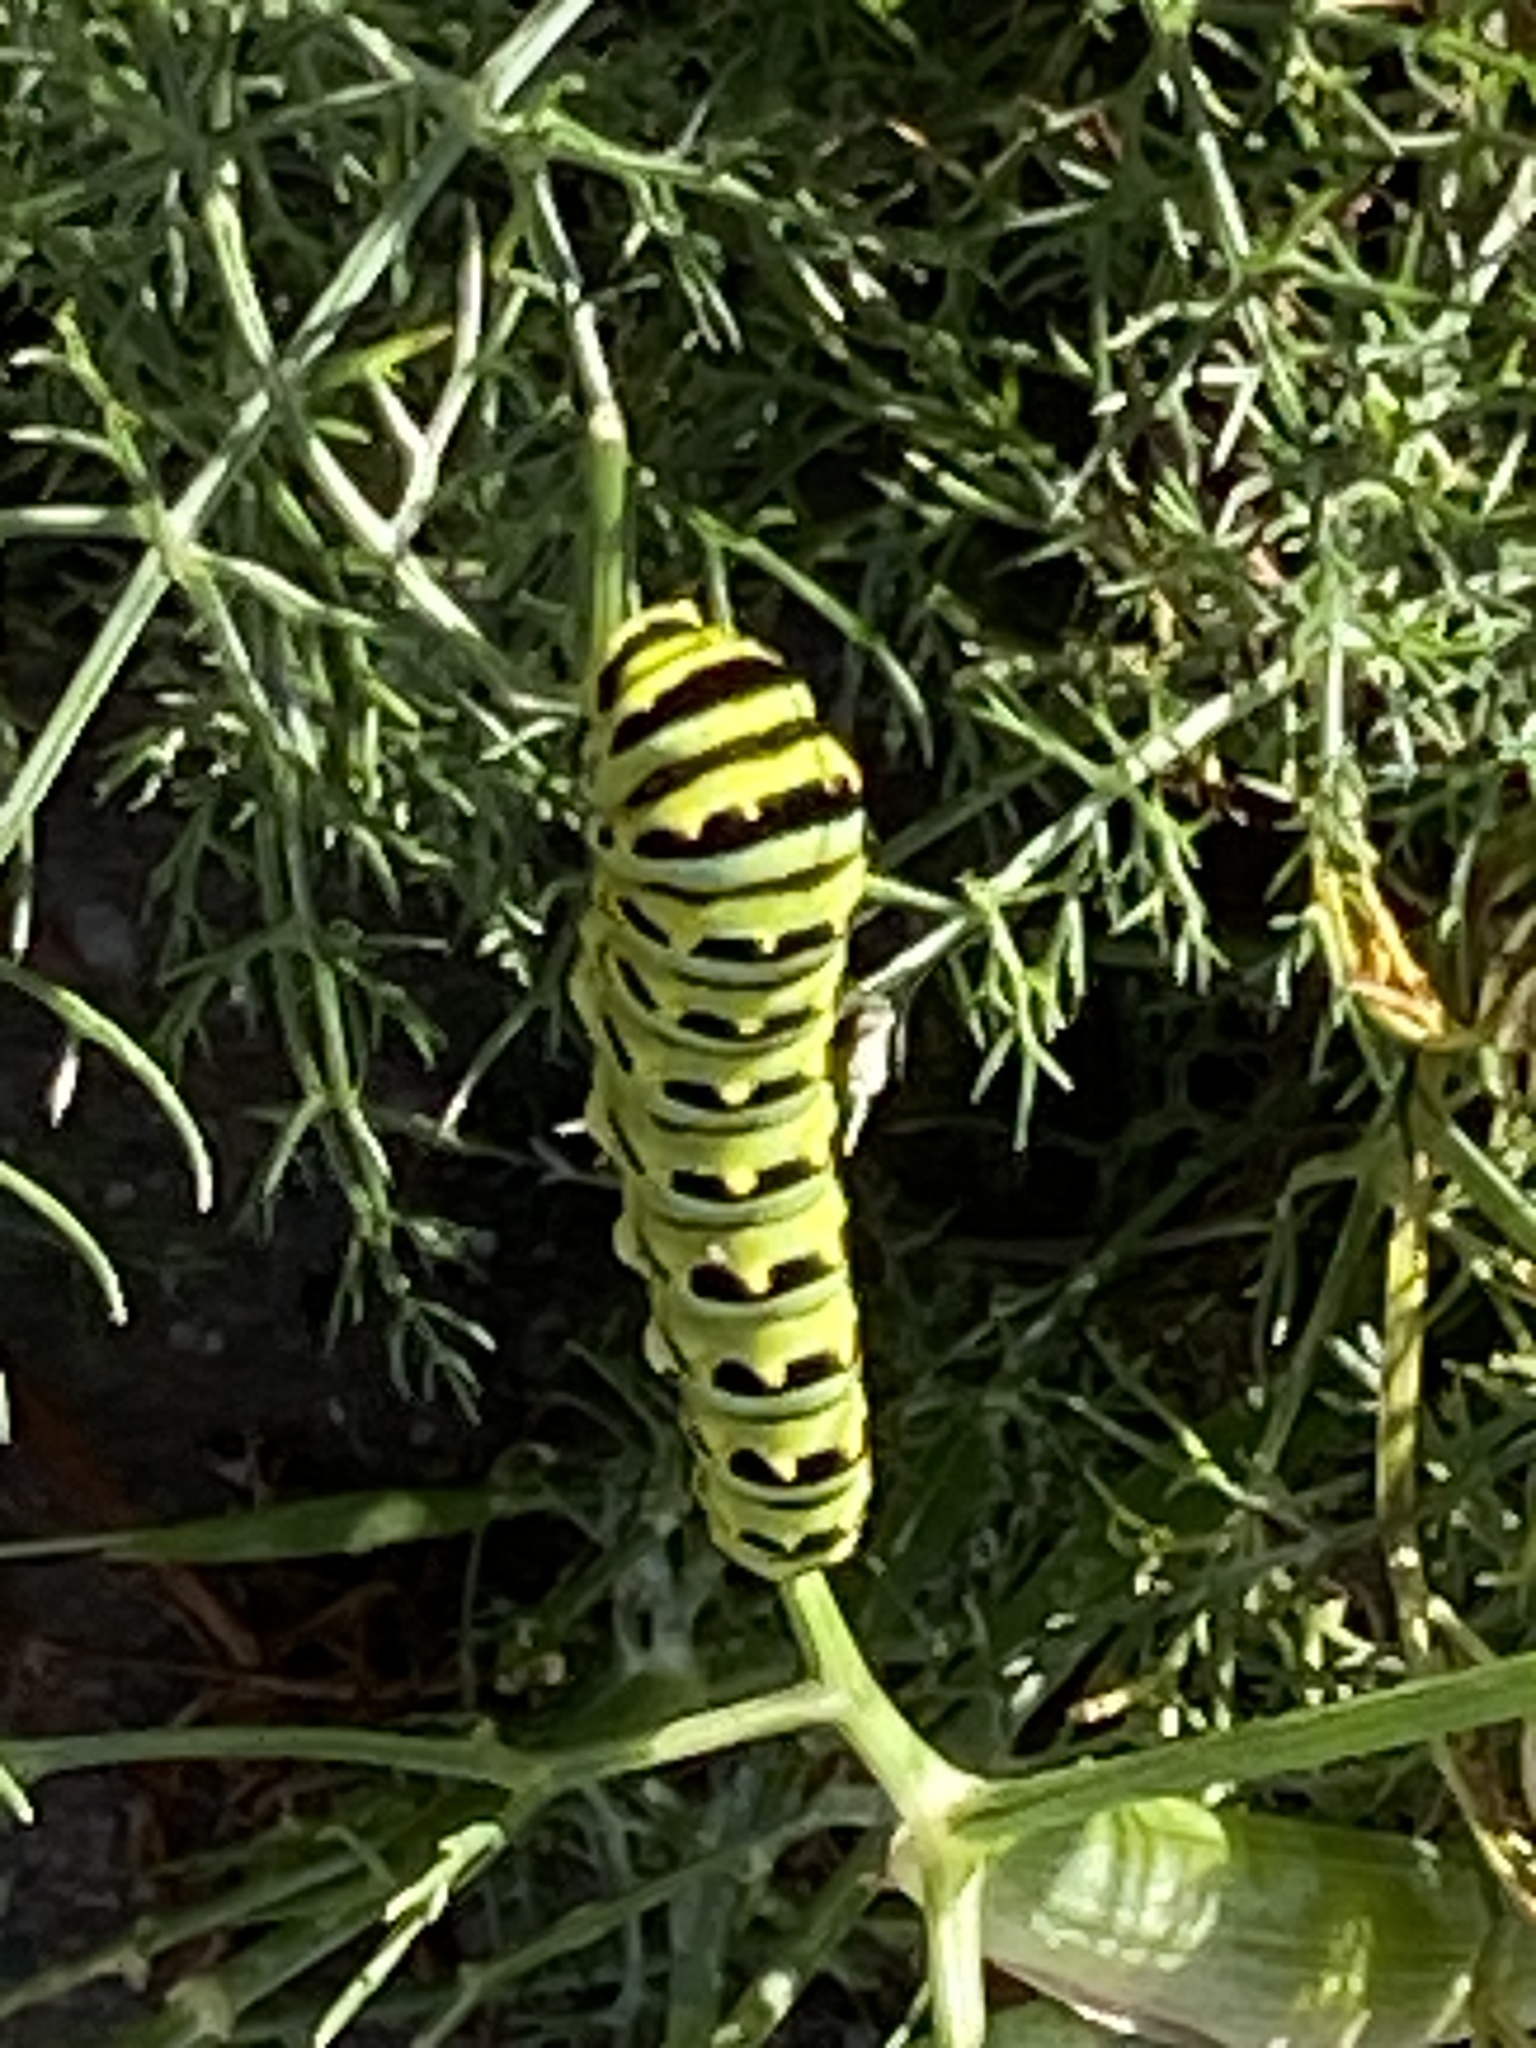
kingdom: Animalia
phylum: Arthropoda
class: Insecta
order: Lepidoptera
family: Papilionidae
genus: Papilio
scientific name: Papilio zelicaon
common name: Anise swallowtail
